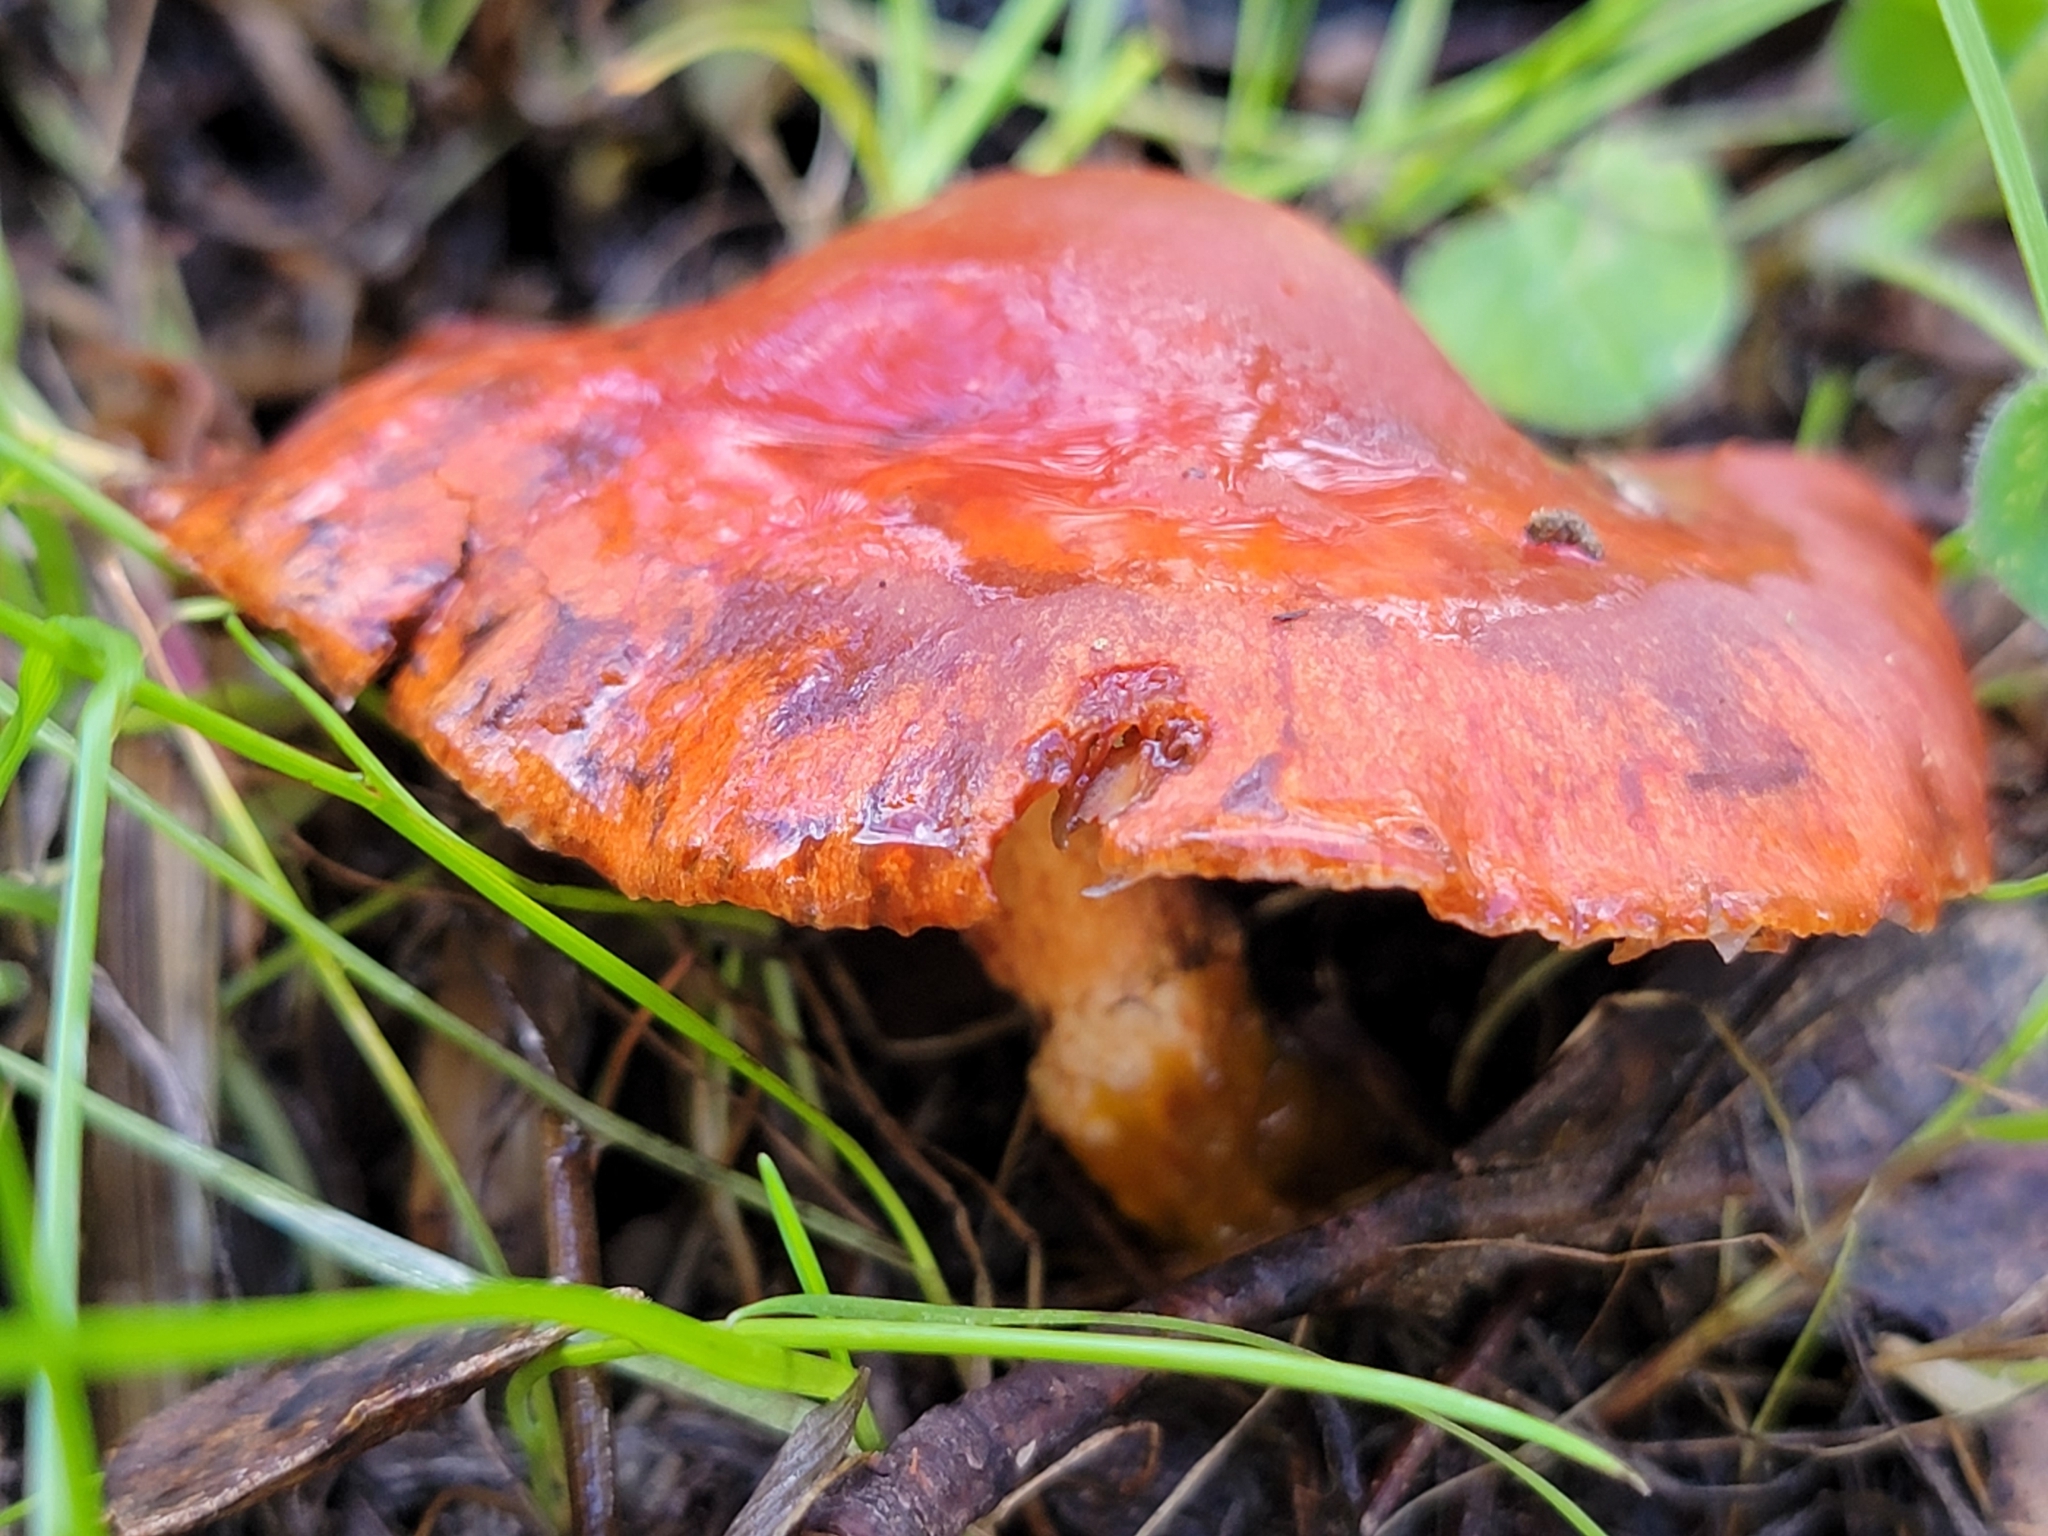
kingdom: Fungi
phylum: Basidiomycota
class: Agaricomycetes
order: Agaricales
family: Strophariaceae
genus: Leratiomyces
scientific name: Leratiomyces ceres
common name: Redlead roundhead
